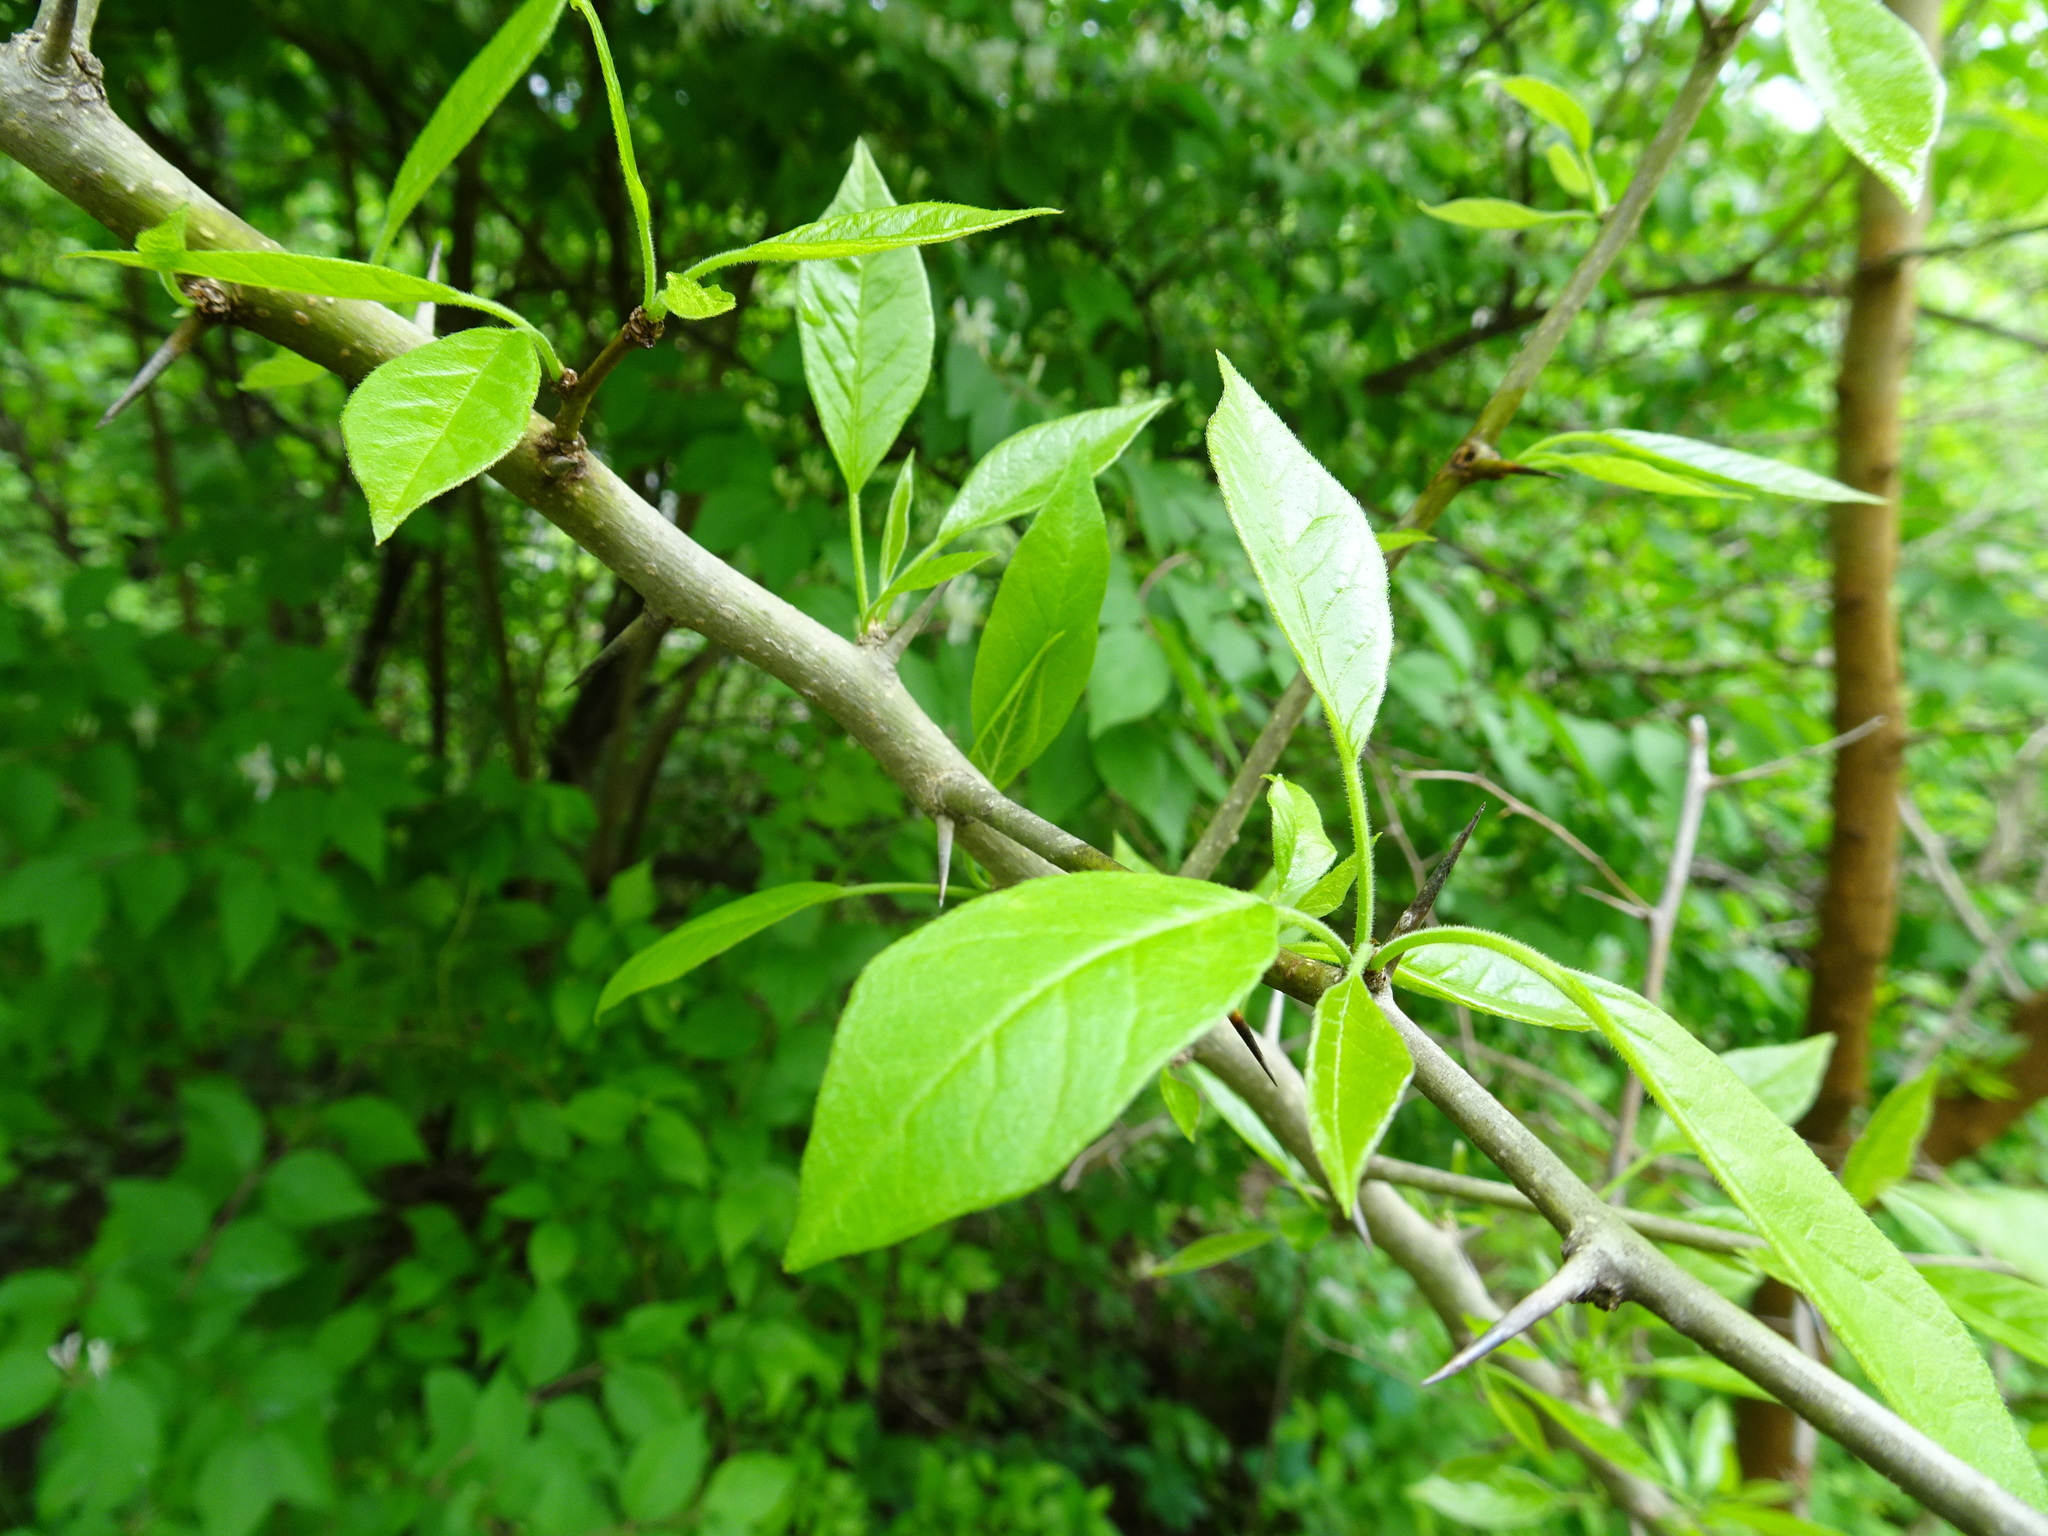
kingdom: Plantae
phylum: Tracheophyta
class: Magnoliopsida
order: Rosales
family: Moraceae
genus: Maclura
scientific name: Maclura pomifera
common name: Osage-orange
